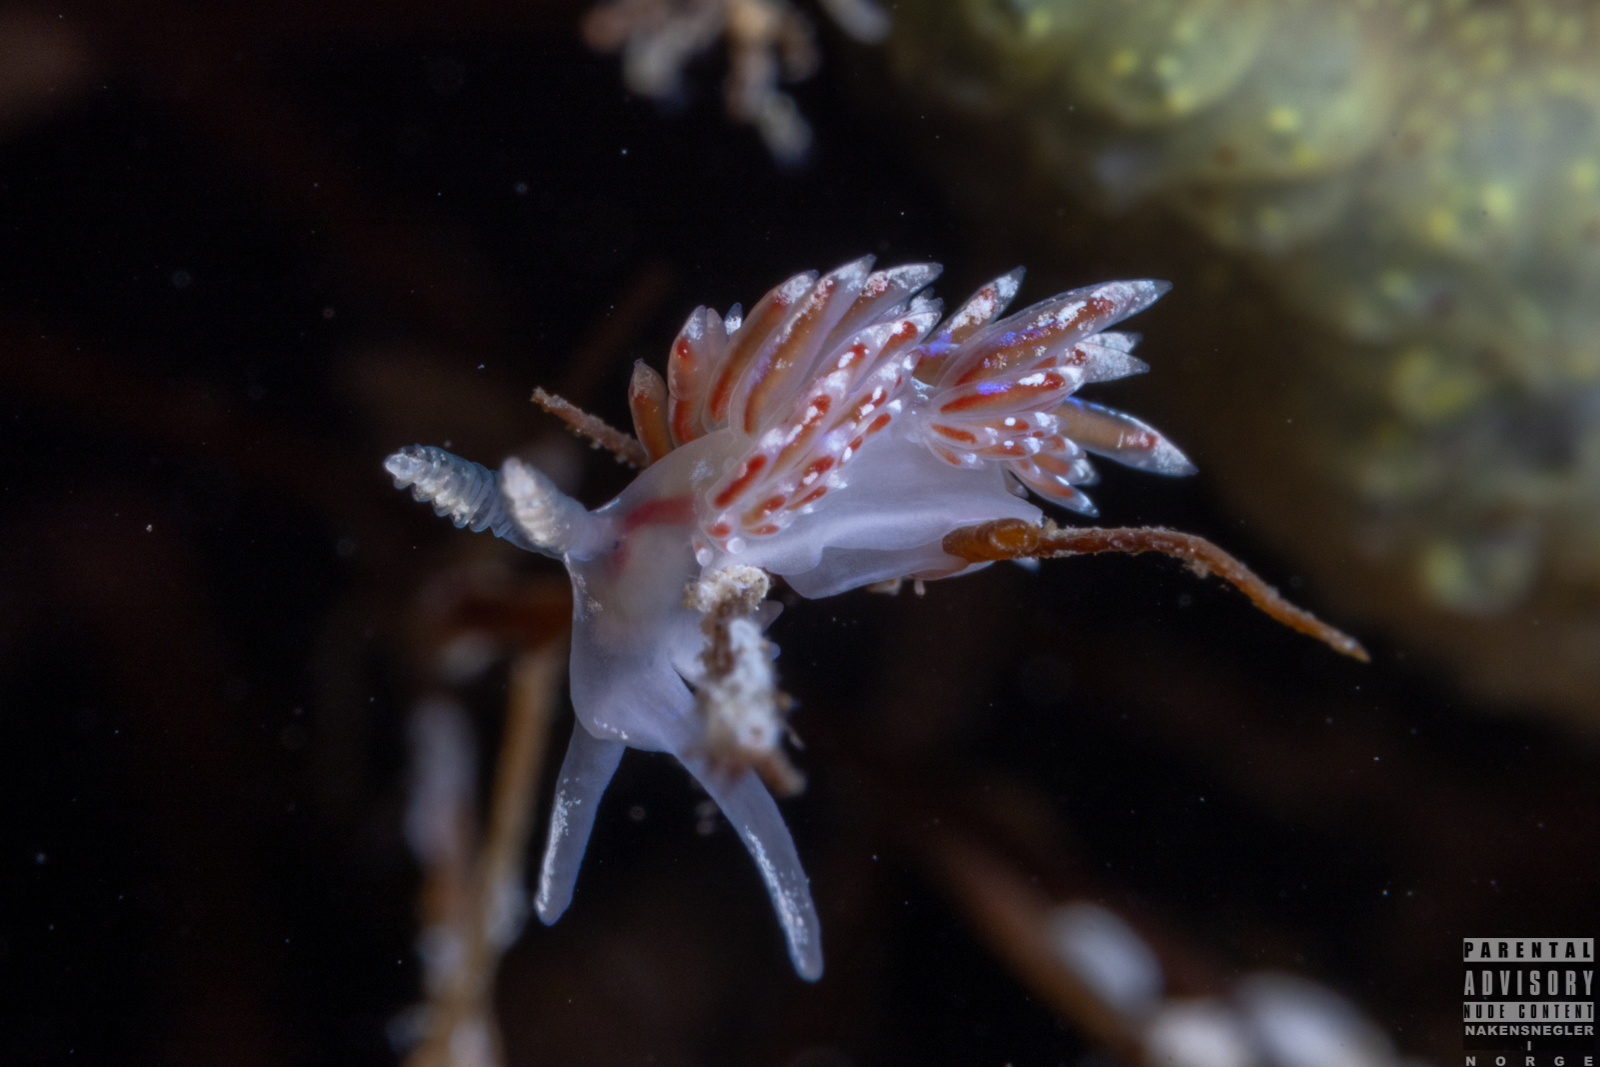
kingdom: Animalia
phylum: Mollusca
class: Gastropoda
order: Nudibranchia
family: Facelinidae
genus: Facelina
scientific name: Facelina auriculata
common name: Slender facelina
